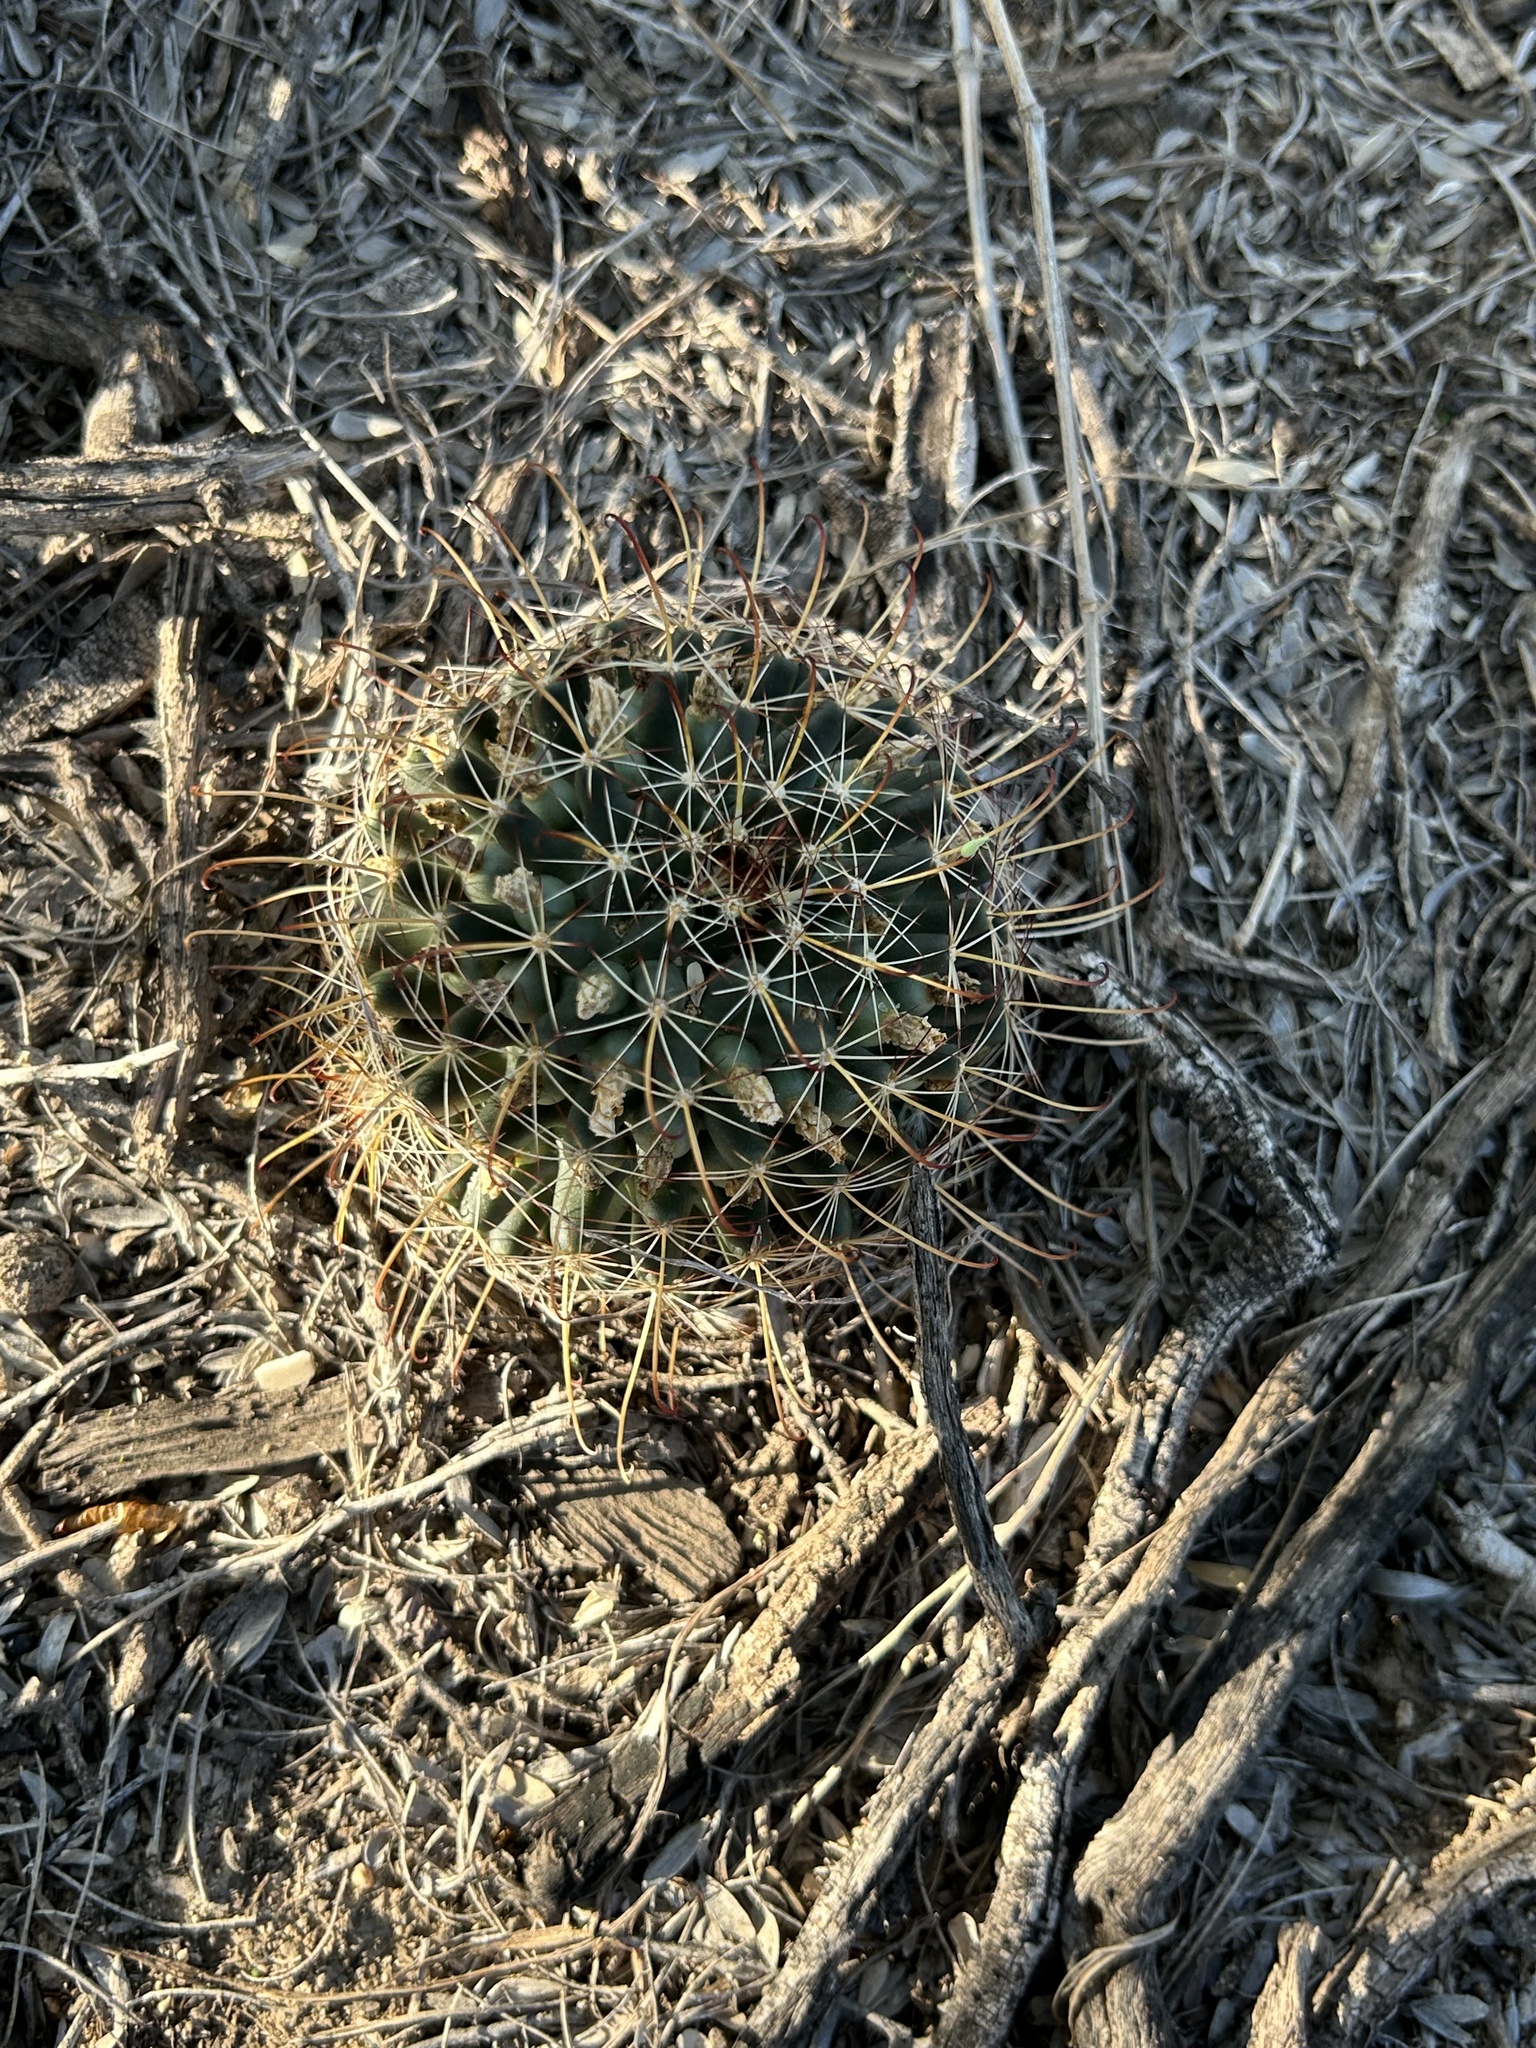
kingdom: Plantae
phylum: Tracheophyta
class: Magnoliopsida
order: Caryophyllales
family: Cactaceae
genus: Cochemiea
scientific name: Cochemiea mainiae
